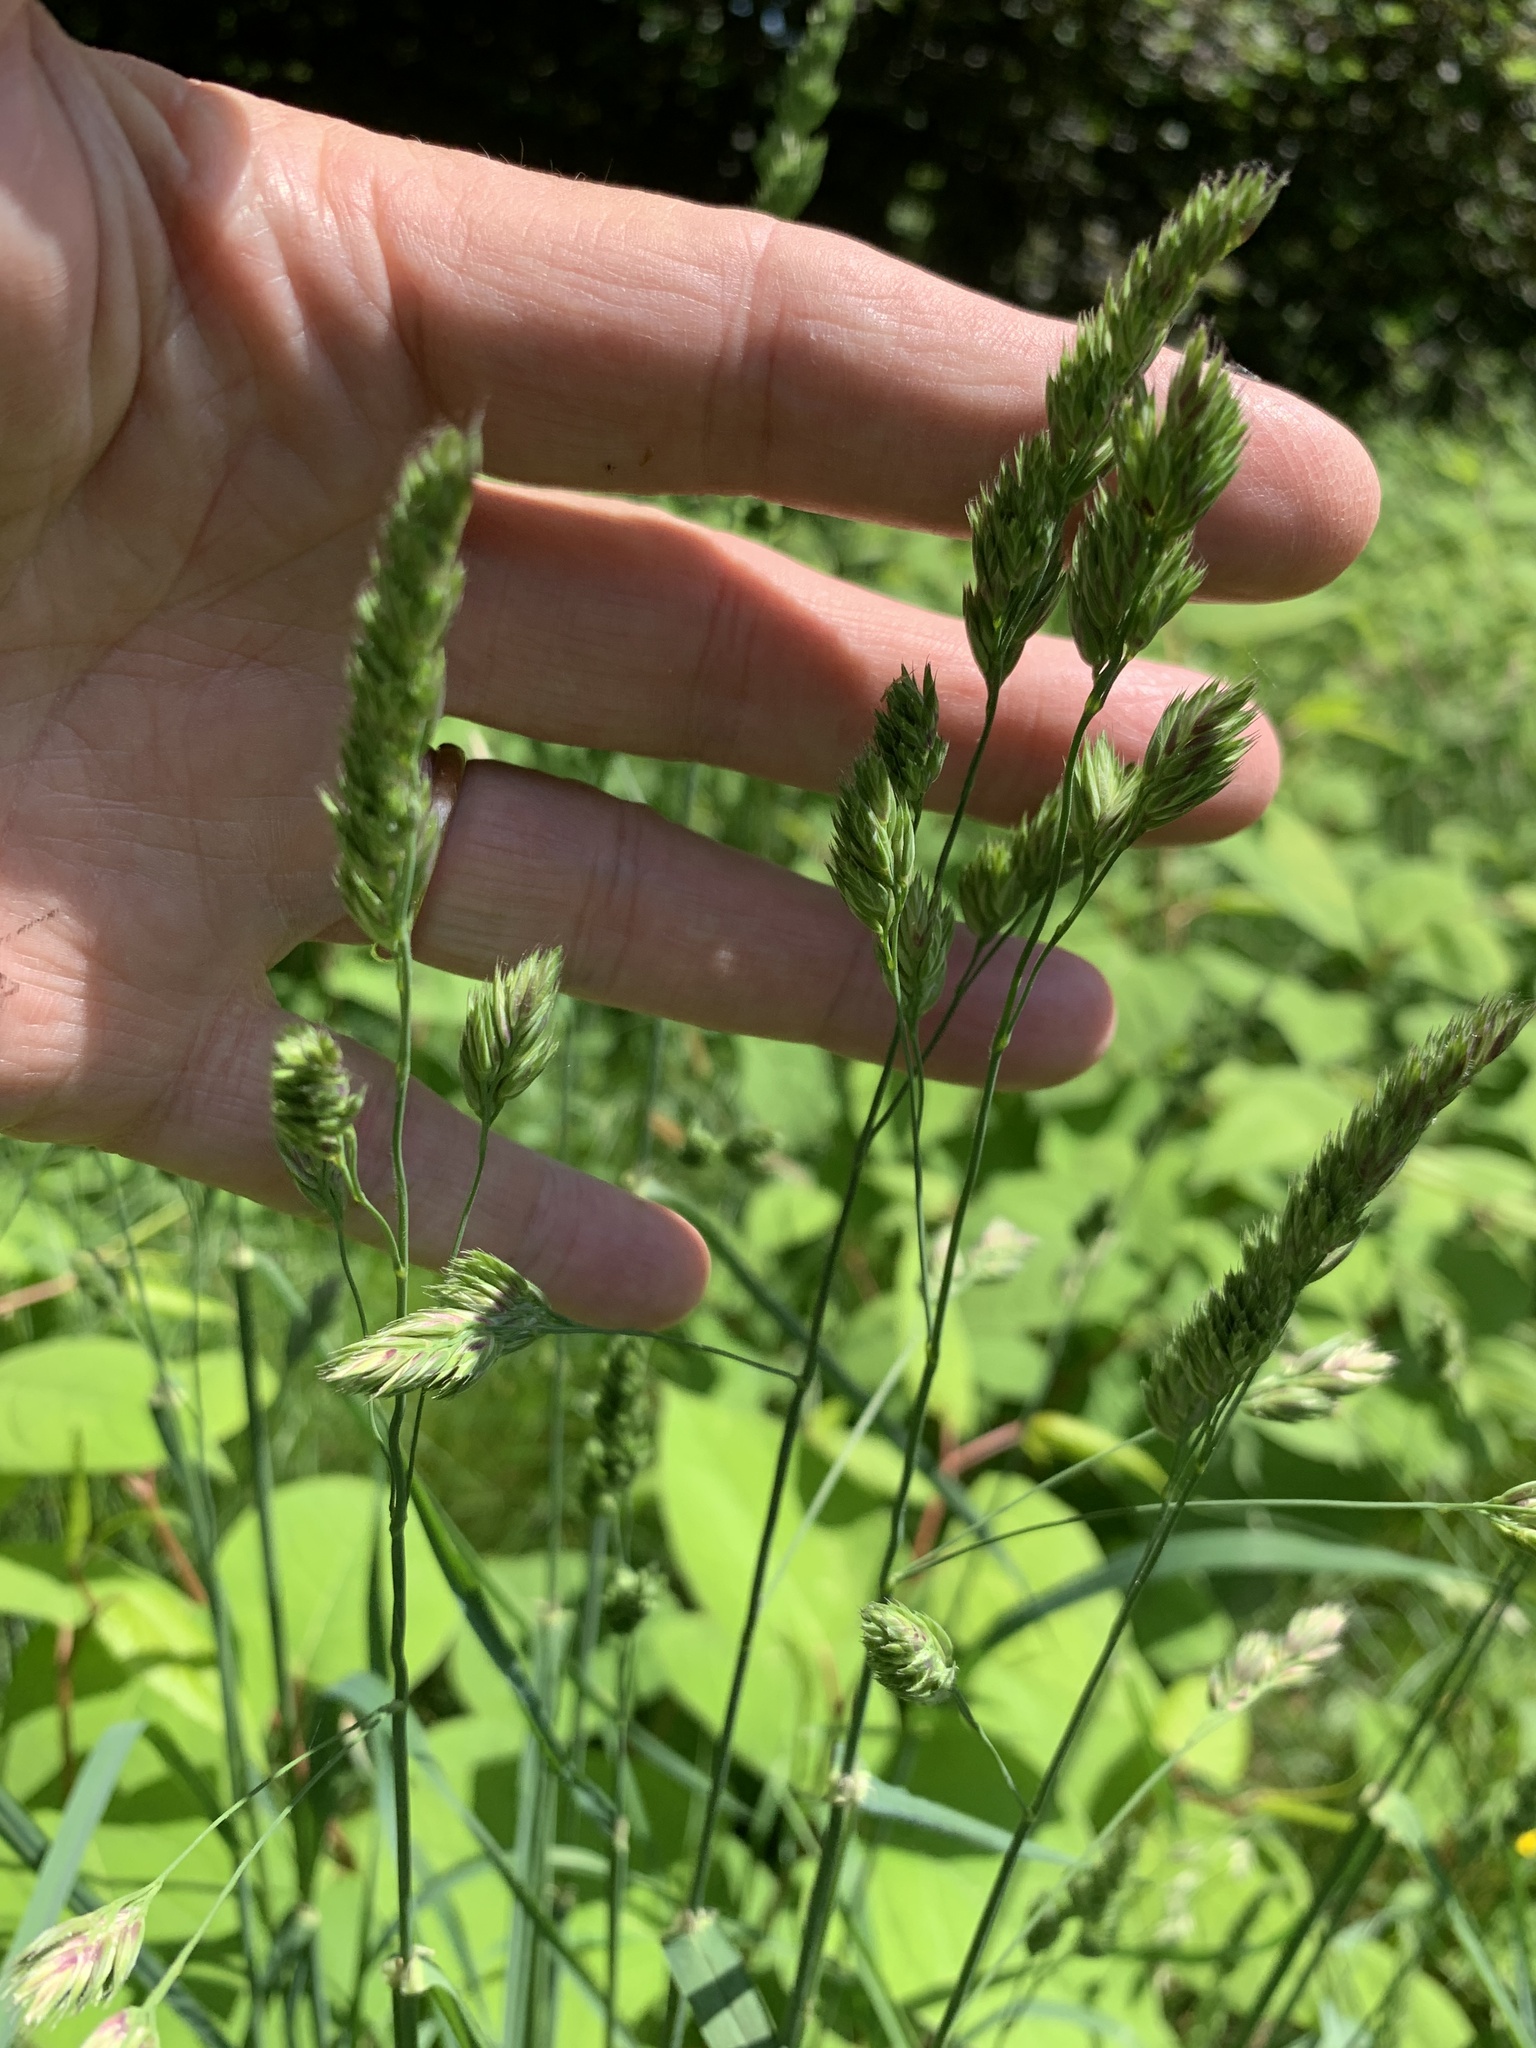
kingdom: Plantae
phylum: Tracheophyta
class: Liliopsida
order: Poales
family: Poaceae
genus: Dactylis
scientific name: Dactylis glomerata
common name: Orchardgrass
